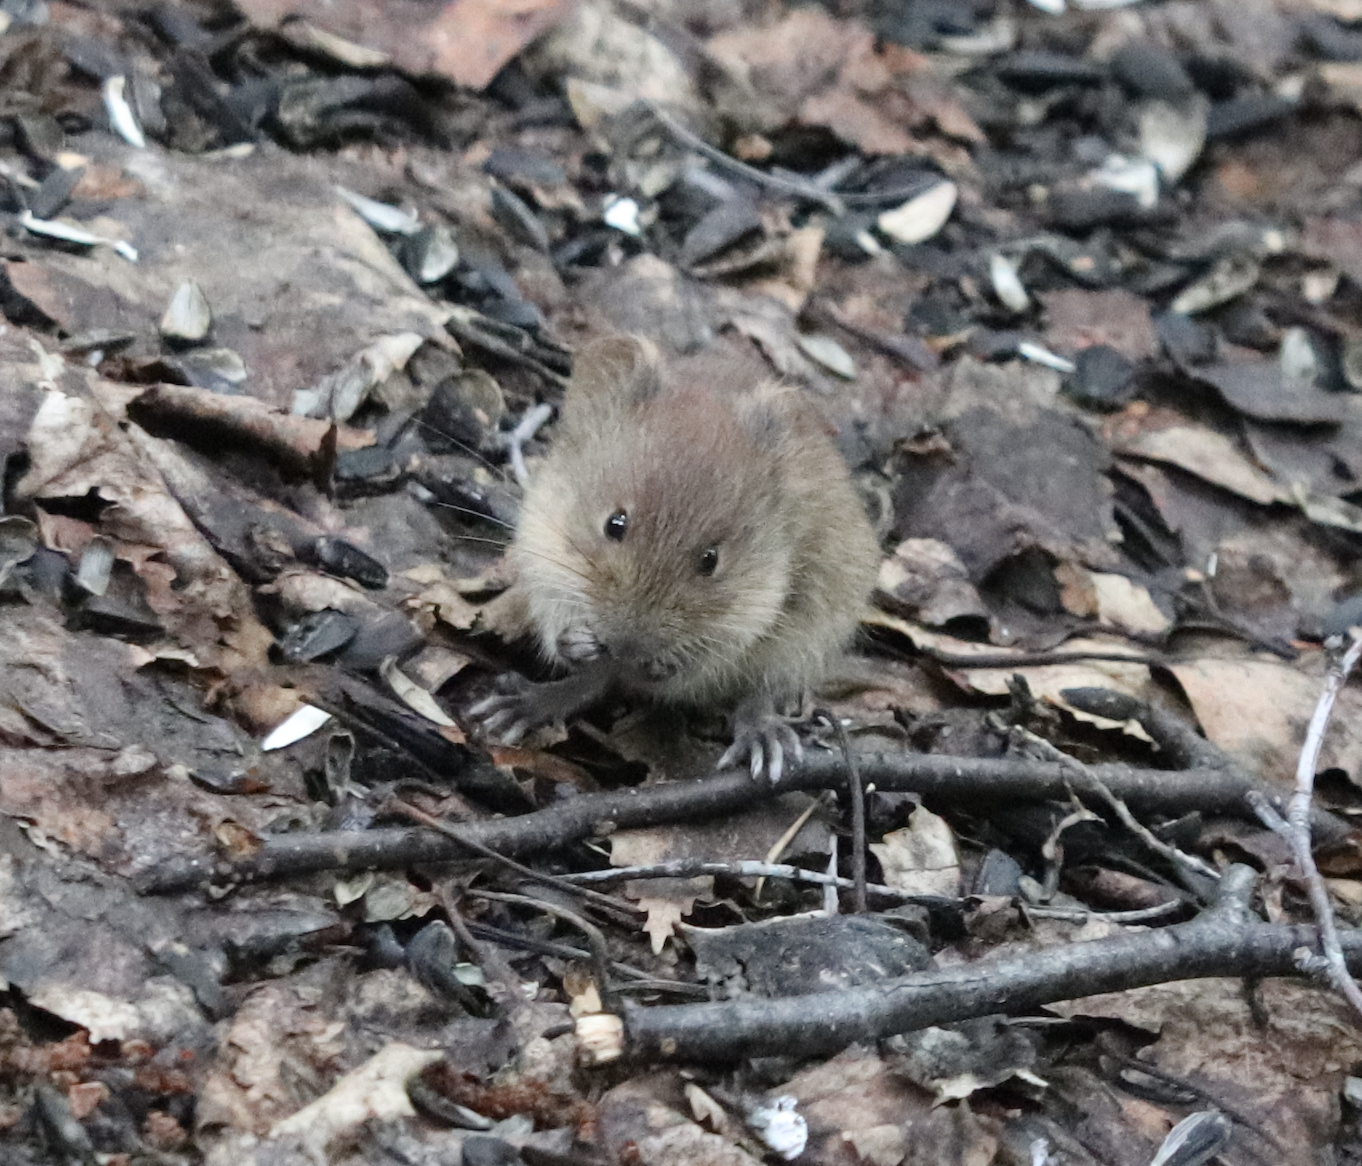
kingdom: Animalia
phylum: Chordata
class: Mammalia
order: Rodentia
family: Cricetidae
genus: Myodes
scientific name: Myodes rutilus
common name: Northern red-backed vole
